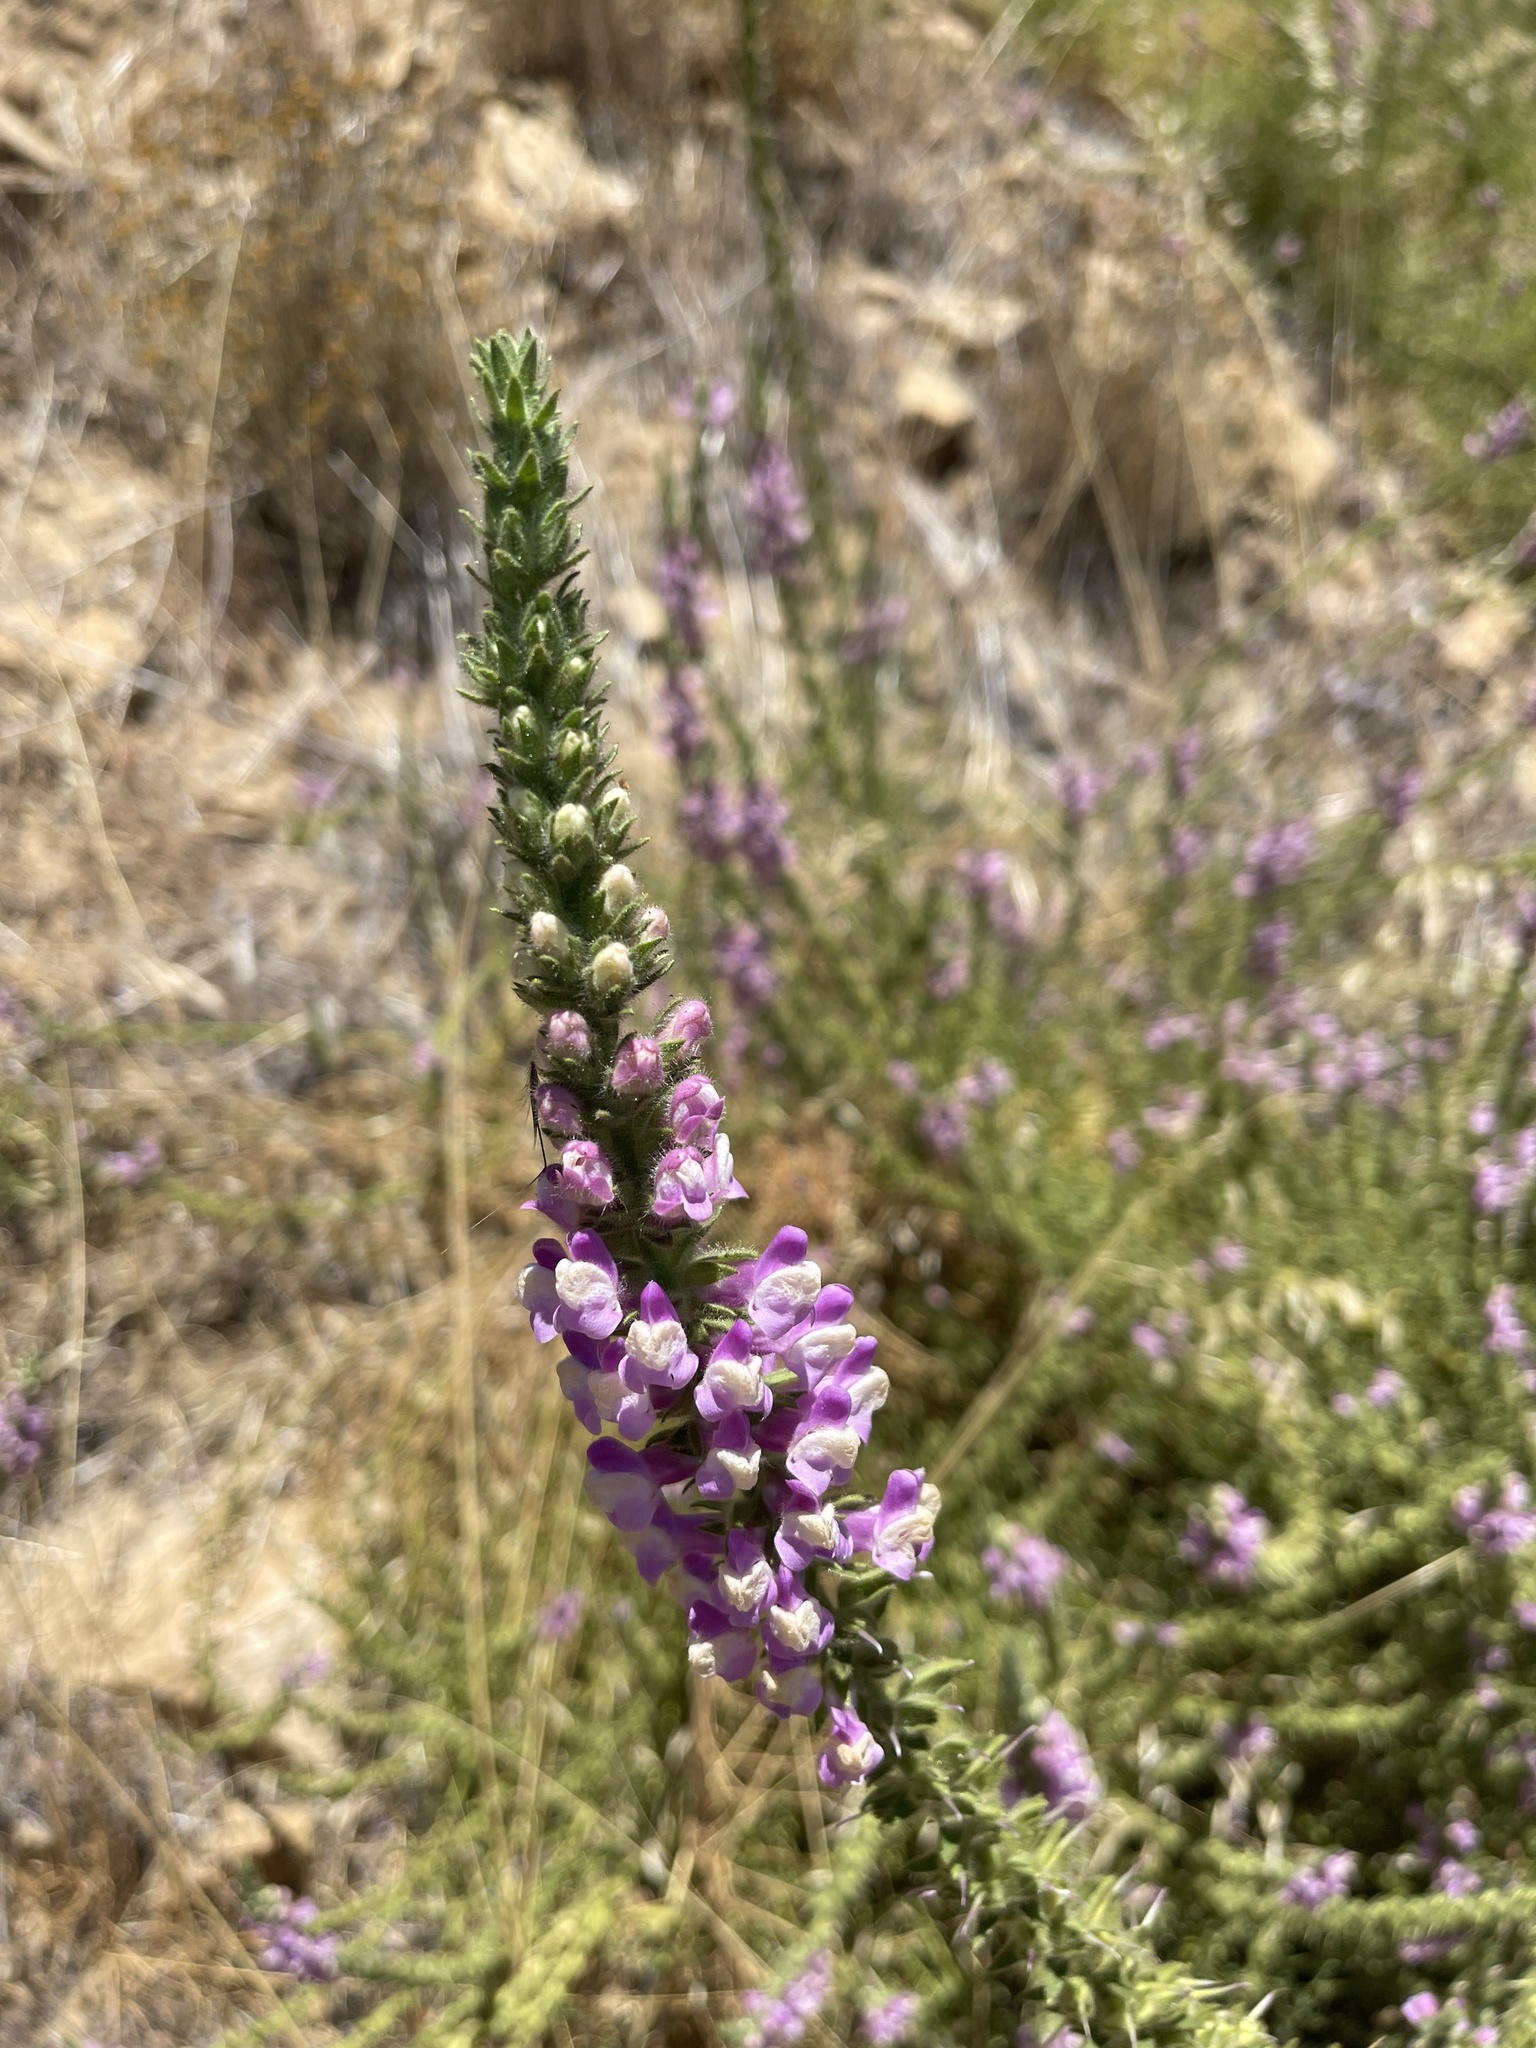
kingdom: Plantae
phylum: Tracheophyta
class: Magnoliopsida
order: Lamiales
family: Plantaginaceae
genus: Sairocarpus
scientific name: Sairocarpus multiflorus
